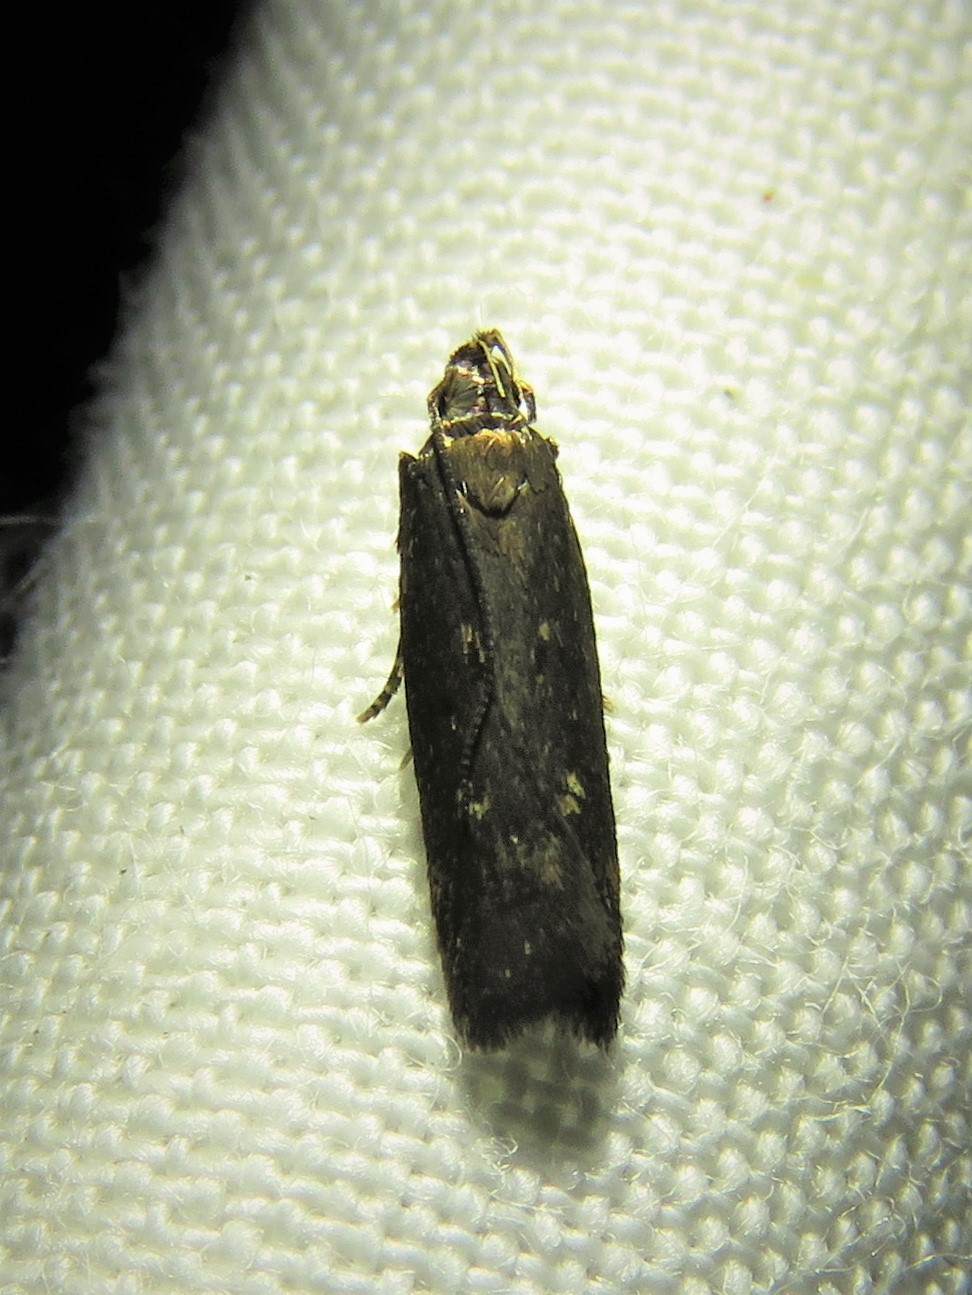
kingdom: Animalia
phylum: Arthropoda
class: Insecta
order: Lepidoptera
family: Gelechiidae
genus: Chionodes
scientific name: Chionodes discoocellella
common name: Eye-ringed chionodes moth
